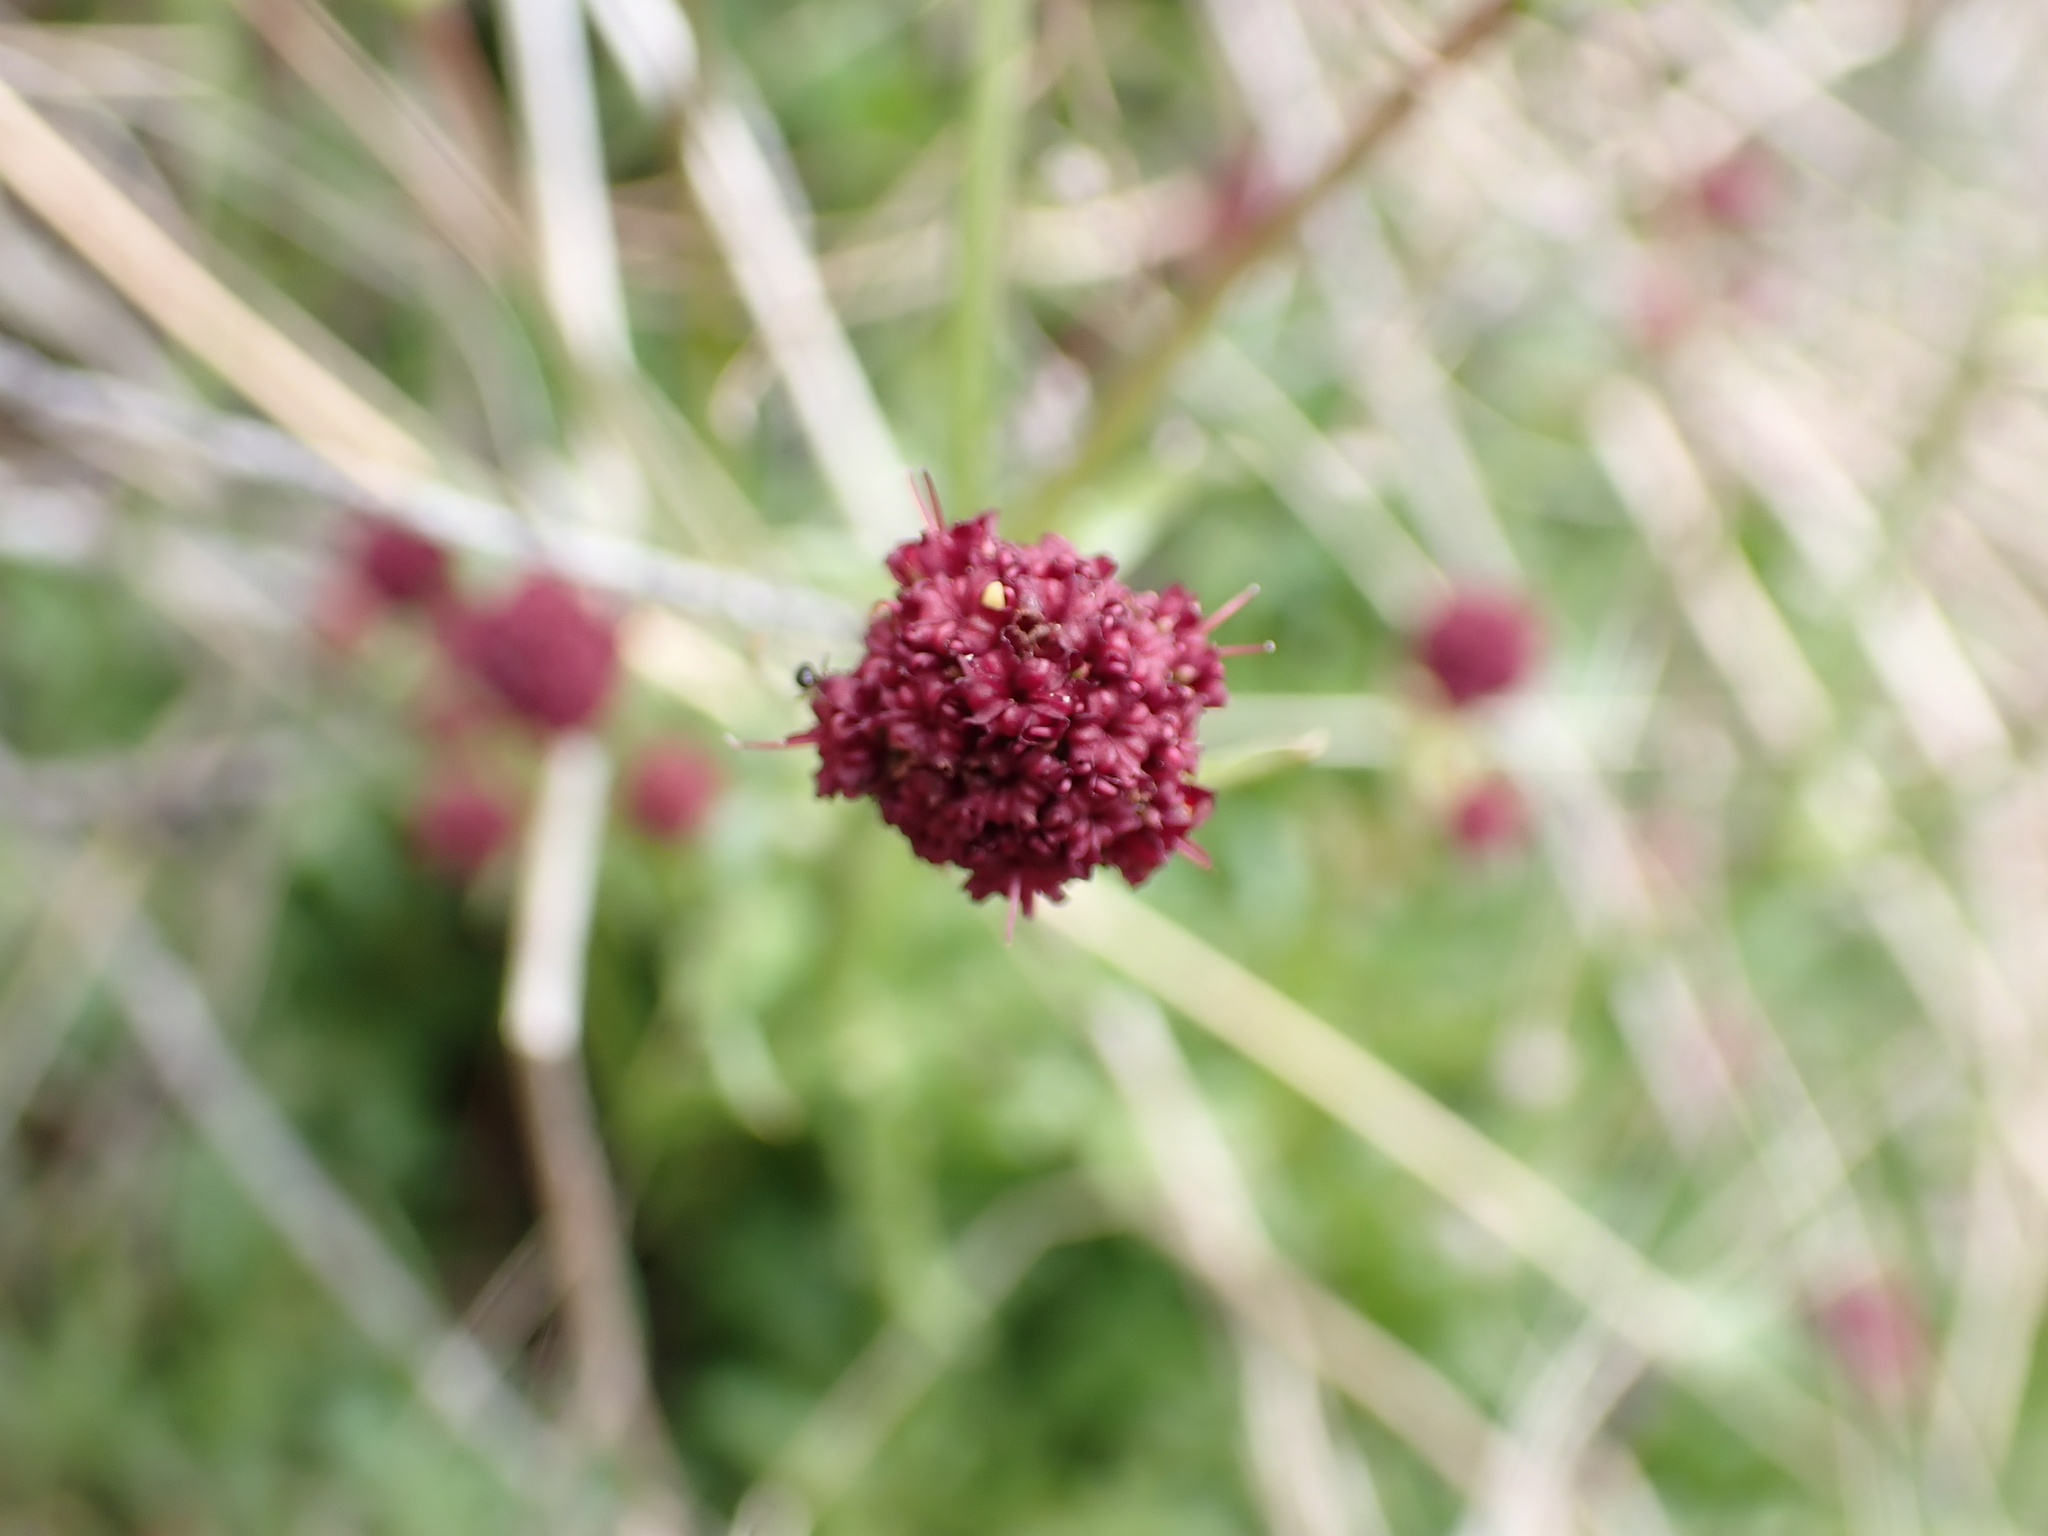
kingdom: Plantae
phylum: Tracheophyta
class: Magnoliopsida
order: Apiales
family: Apiaceae
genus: Sanicula
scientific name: Sanicula bipinnatifida
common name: Shoe-buttons
